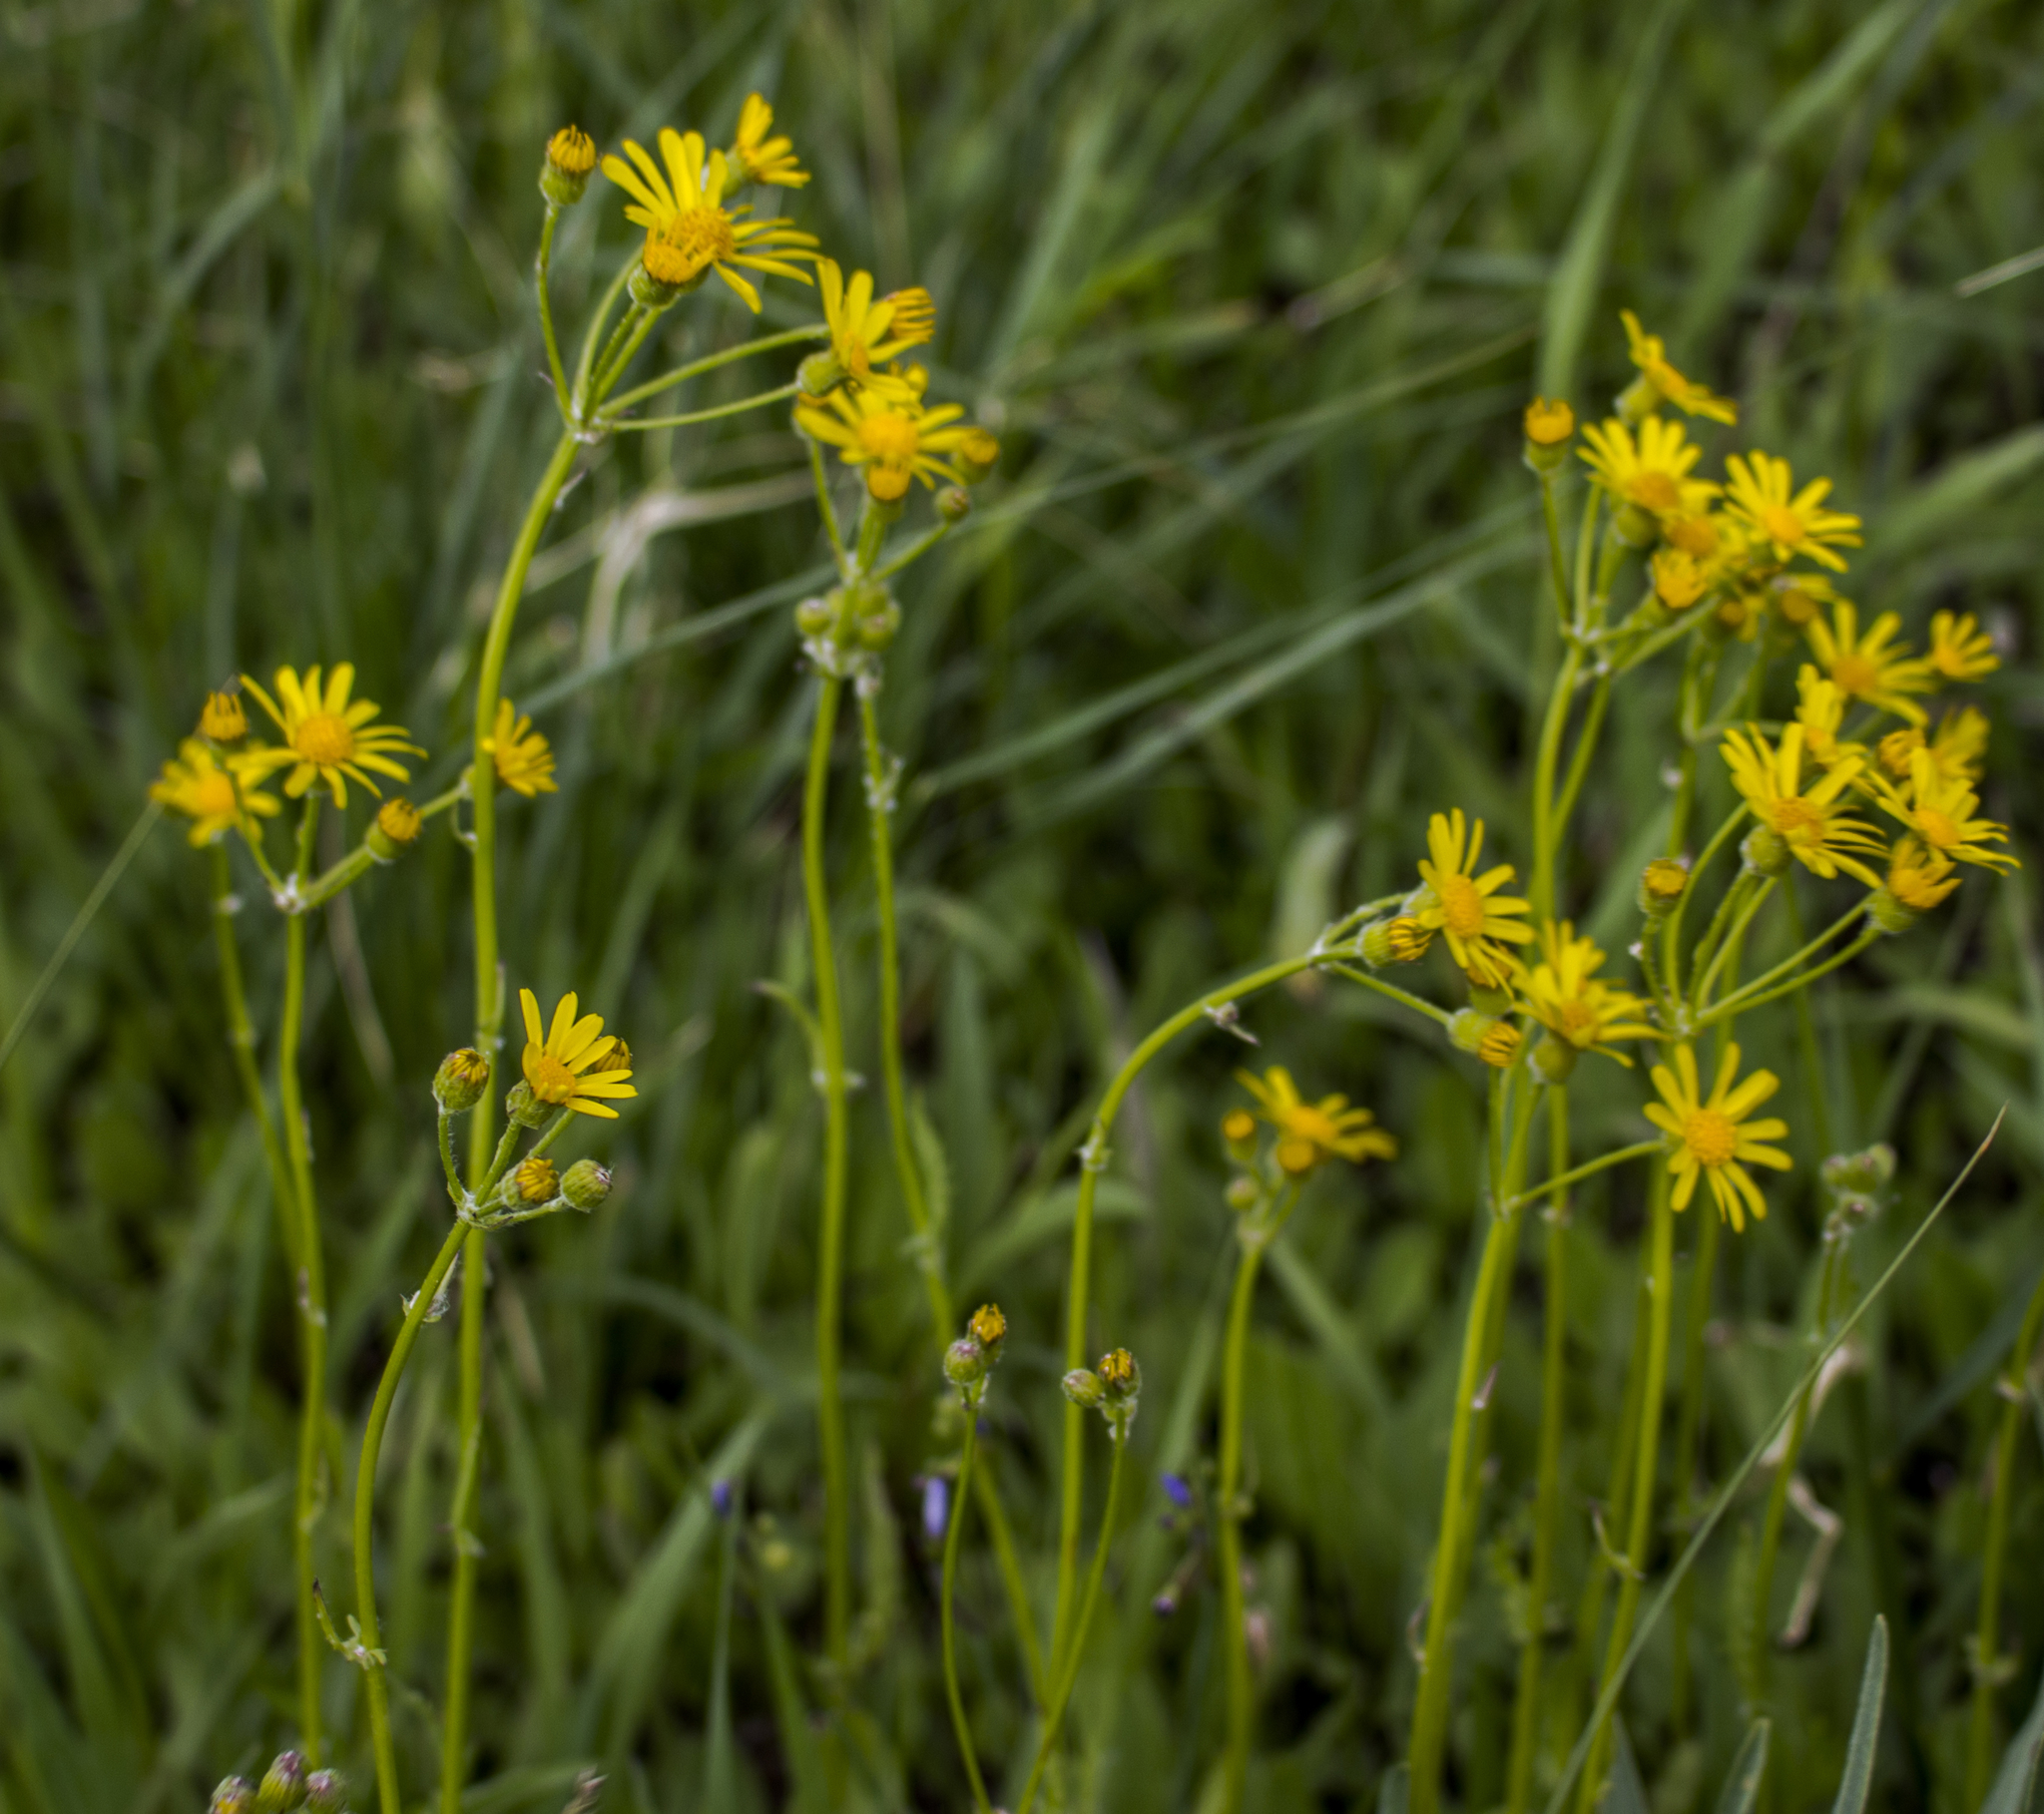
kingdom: Plantae
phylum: Tracheophyta
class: Magnoliopsida
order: Asterales
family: Asteraceae
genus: Packera
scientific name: Packera paupercula
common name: Balsam groundsel
